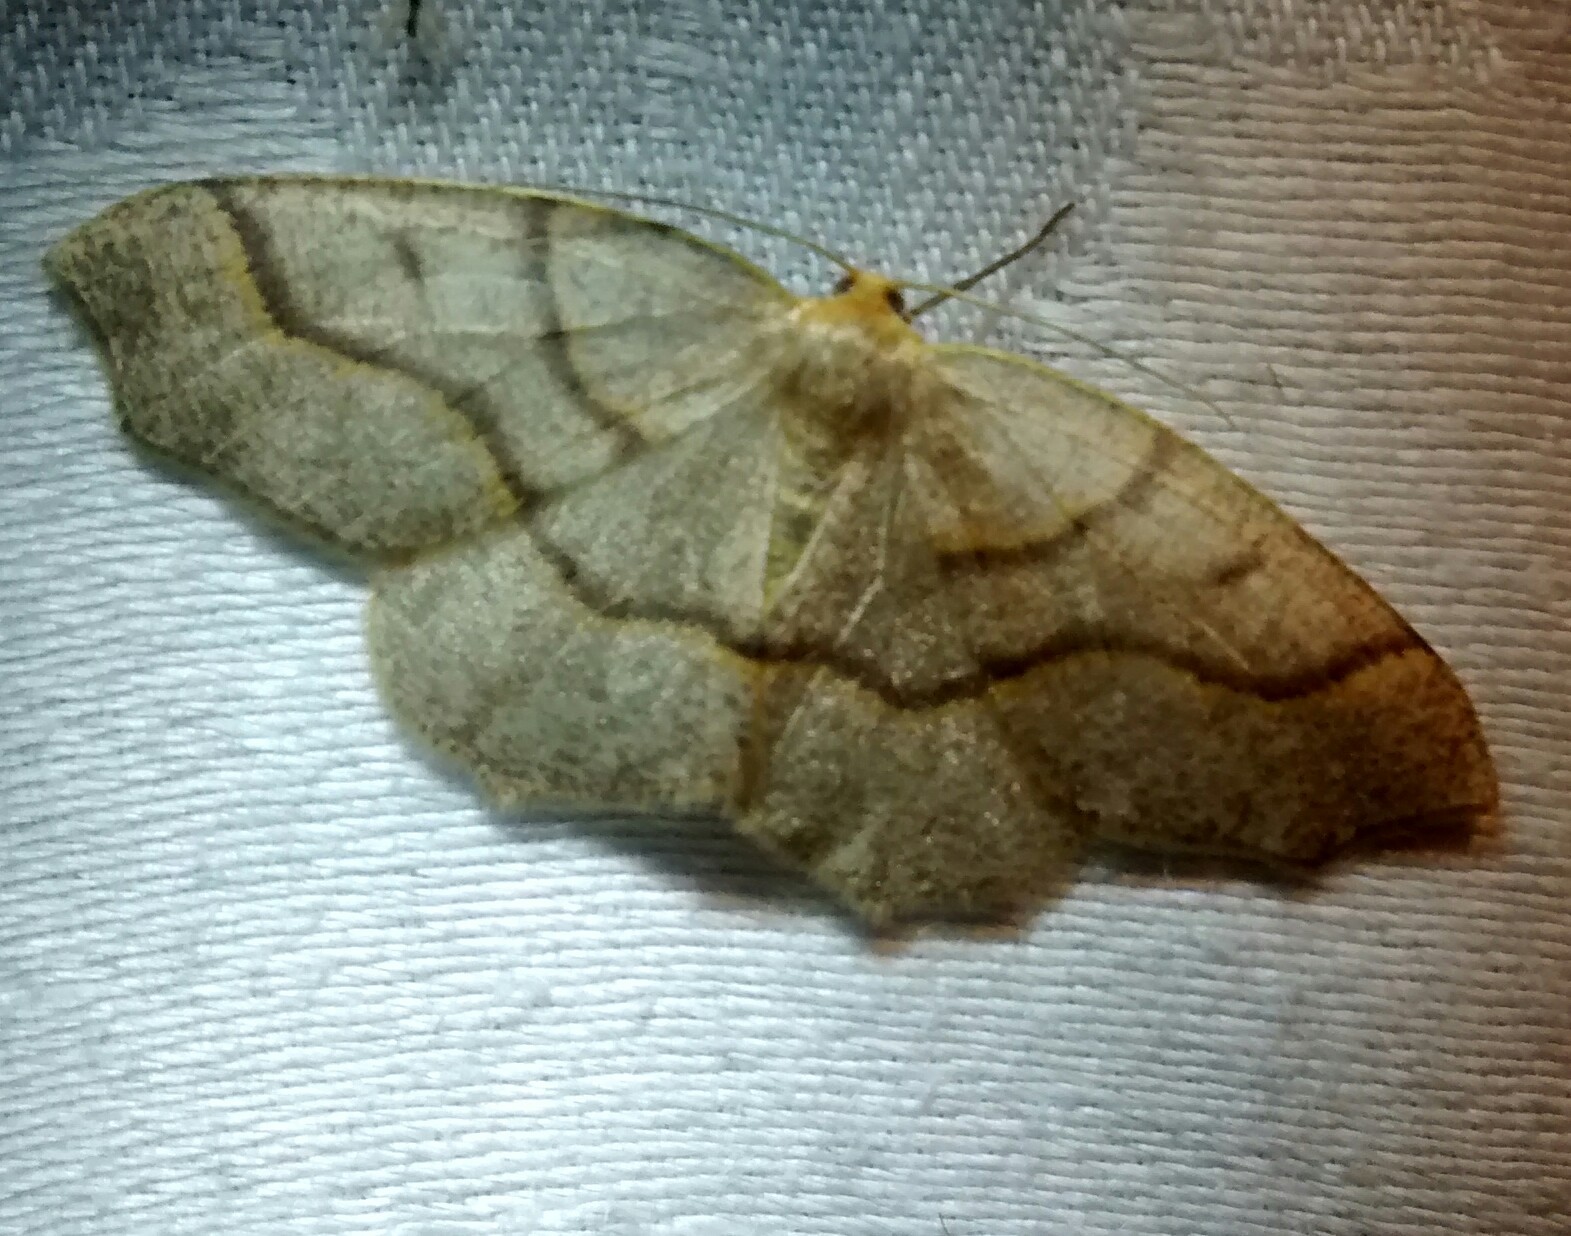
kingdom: Animalia
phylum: Arthropoda
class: Insecta
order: Lepidoptera
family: Geometridae
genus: Lambdina
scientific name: Lambdina fiscellaria
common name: Hemlock looper
